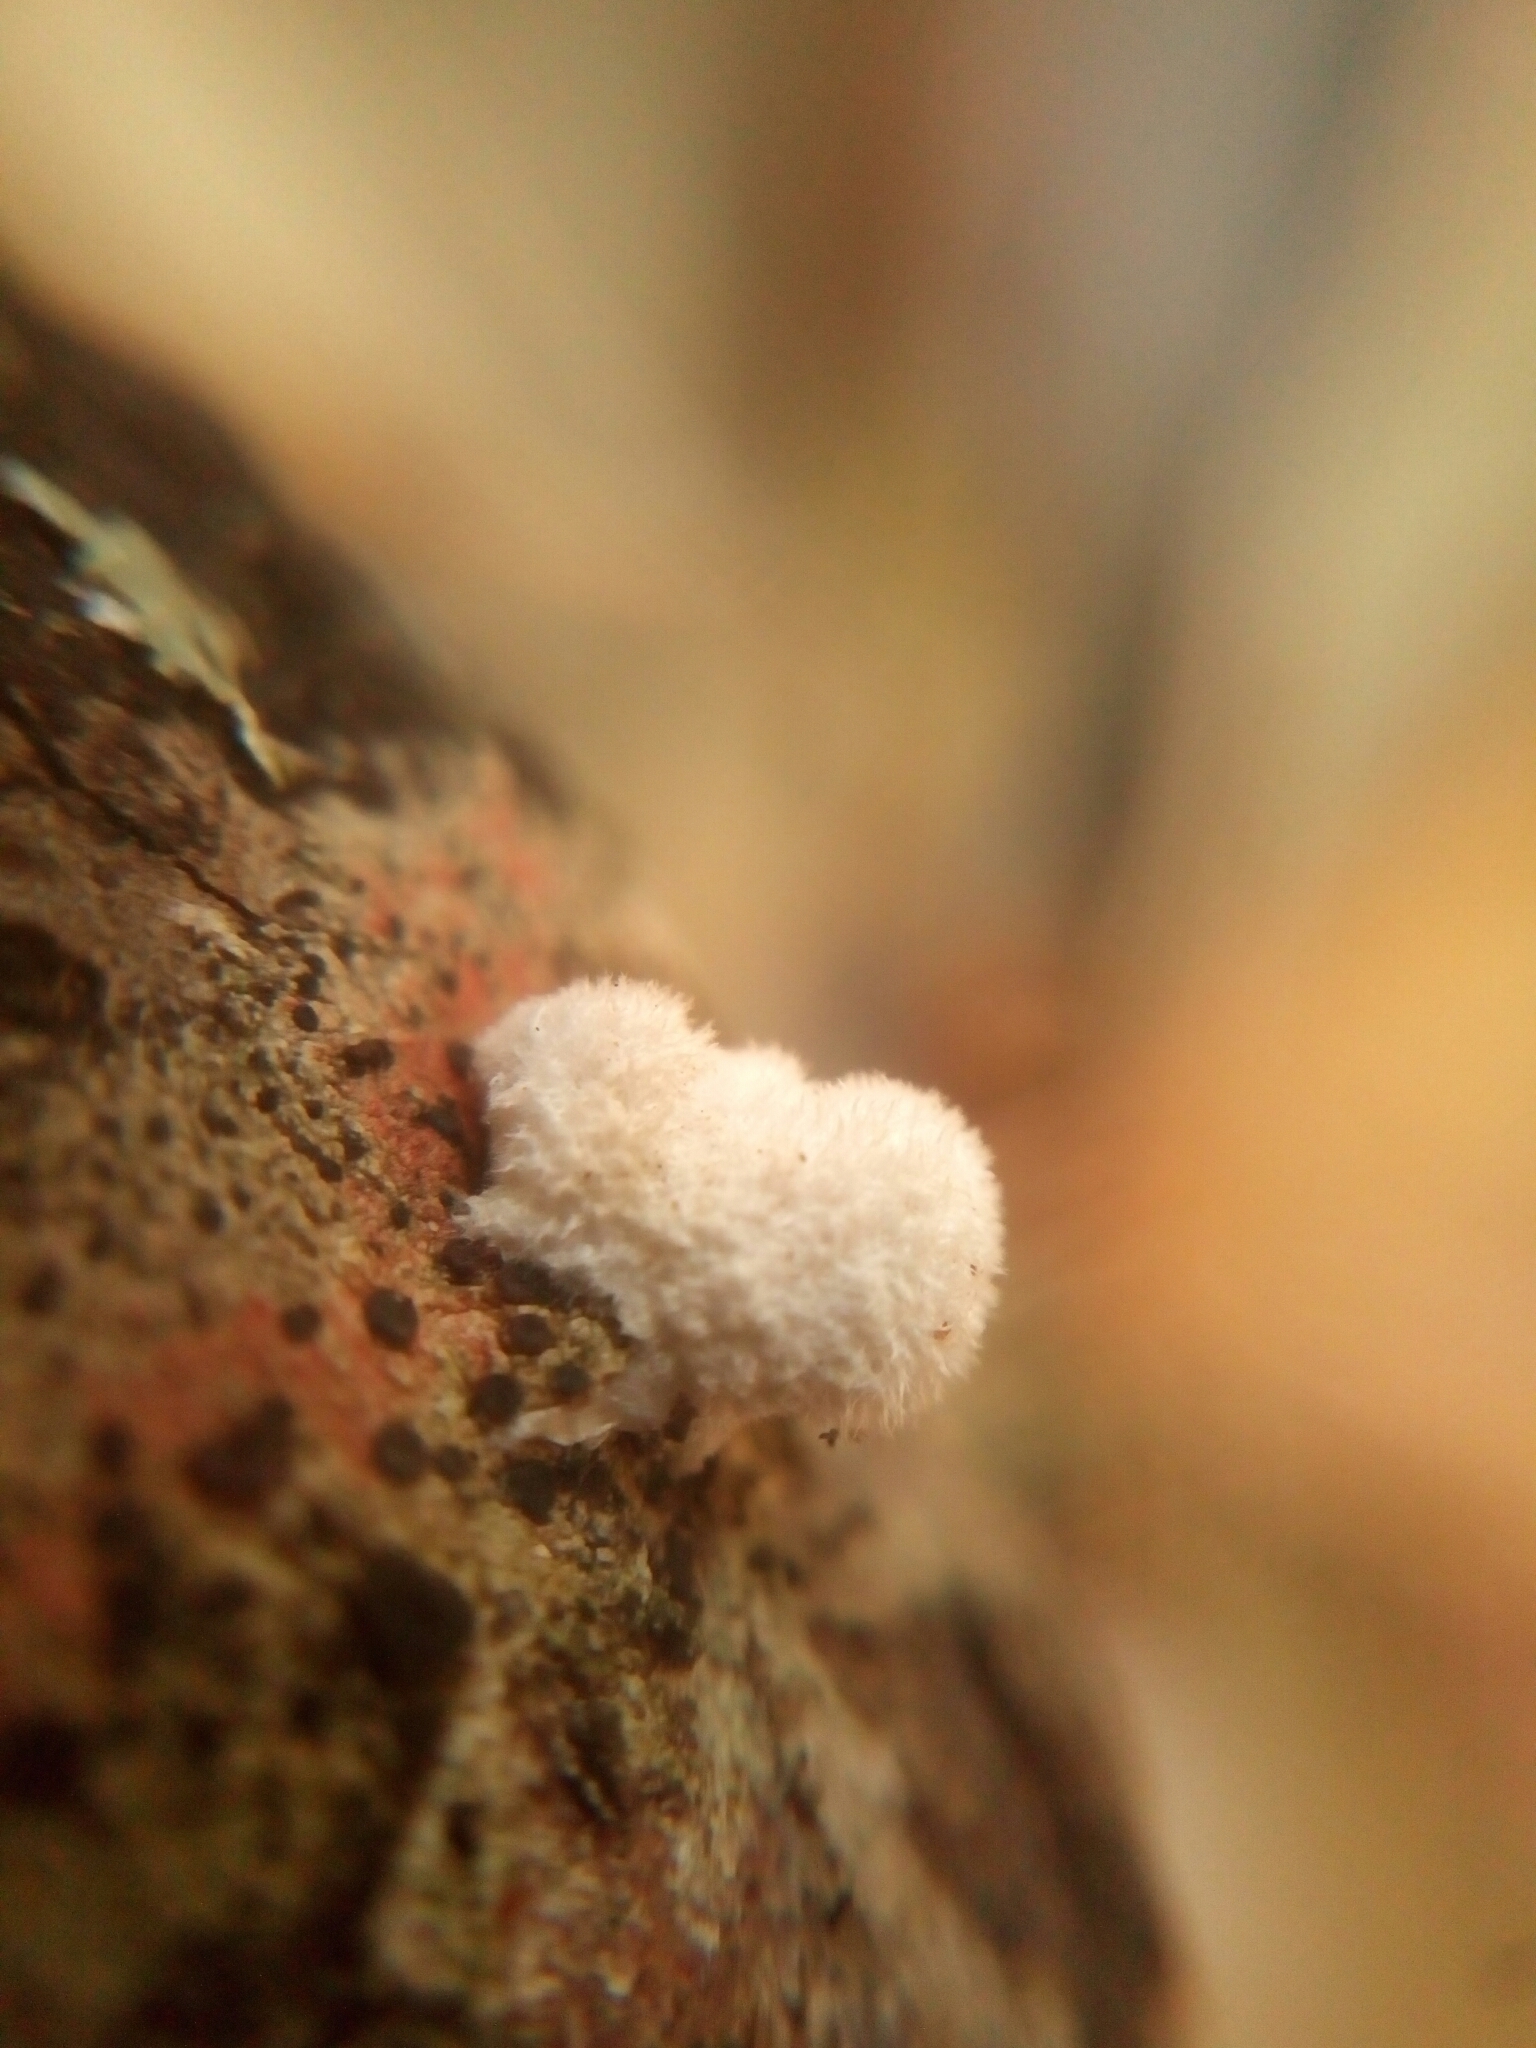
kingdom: Fungi
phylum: Basidiomycota
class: Agaricomycetes
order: Agaricales
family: Schizophyllaceae
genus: Schizophyllum
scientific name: Schizophyllum commune
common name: Common porecrust
